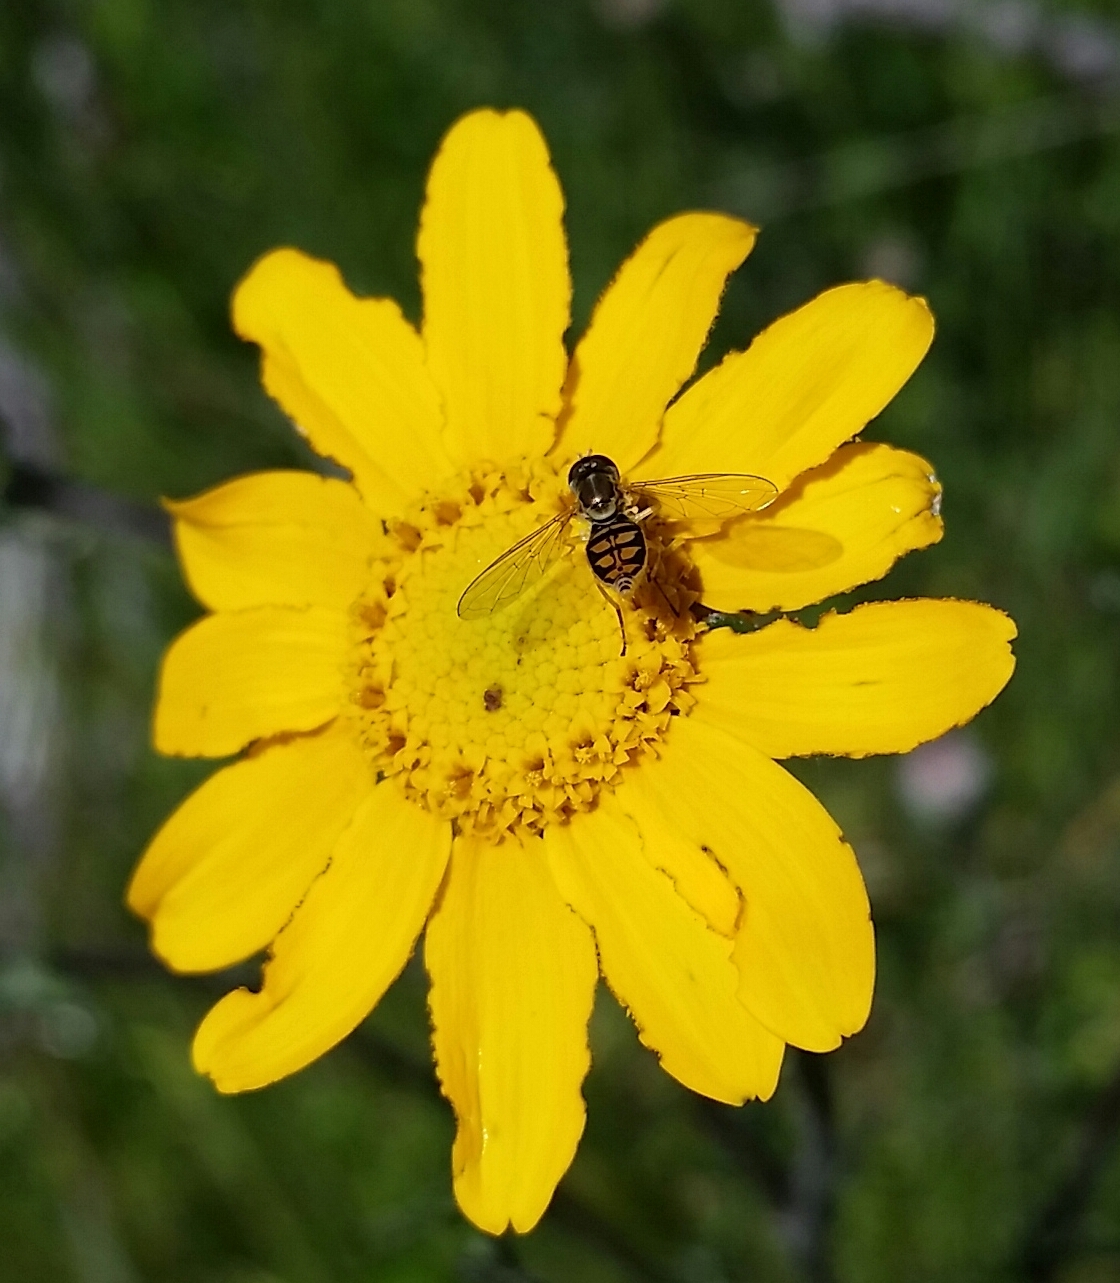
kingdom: Animalia
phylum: Arthropoda
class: Insecta
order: Diptera
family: Syrphidae
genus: Toxomerus
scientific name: Toxomerus marginatus
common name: Syrphid fly
